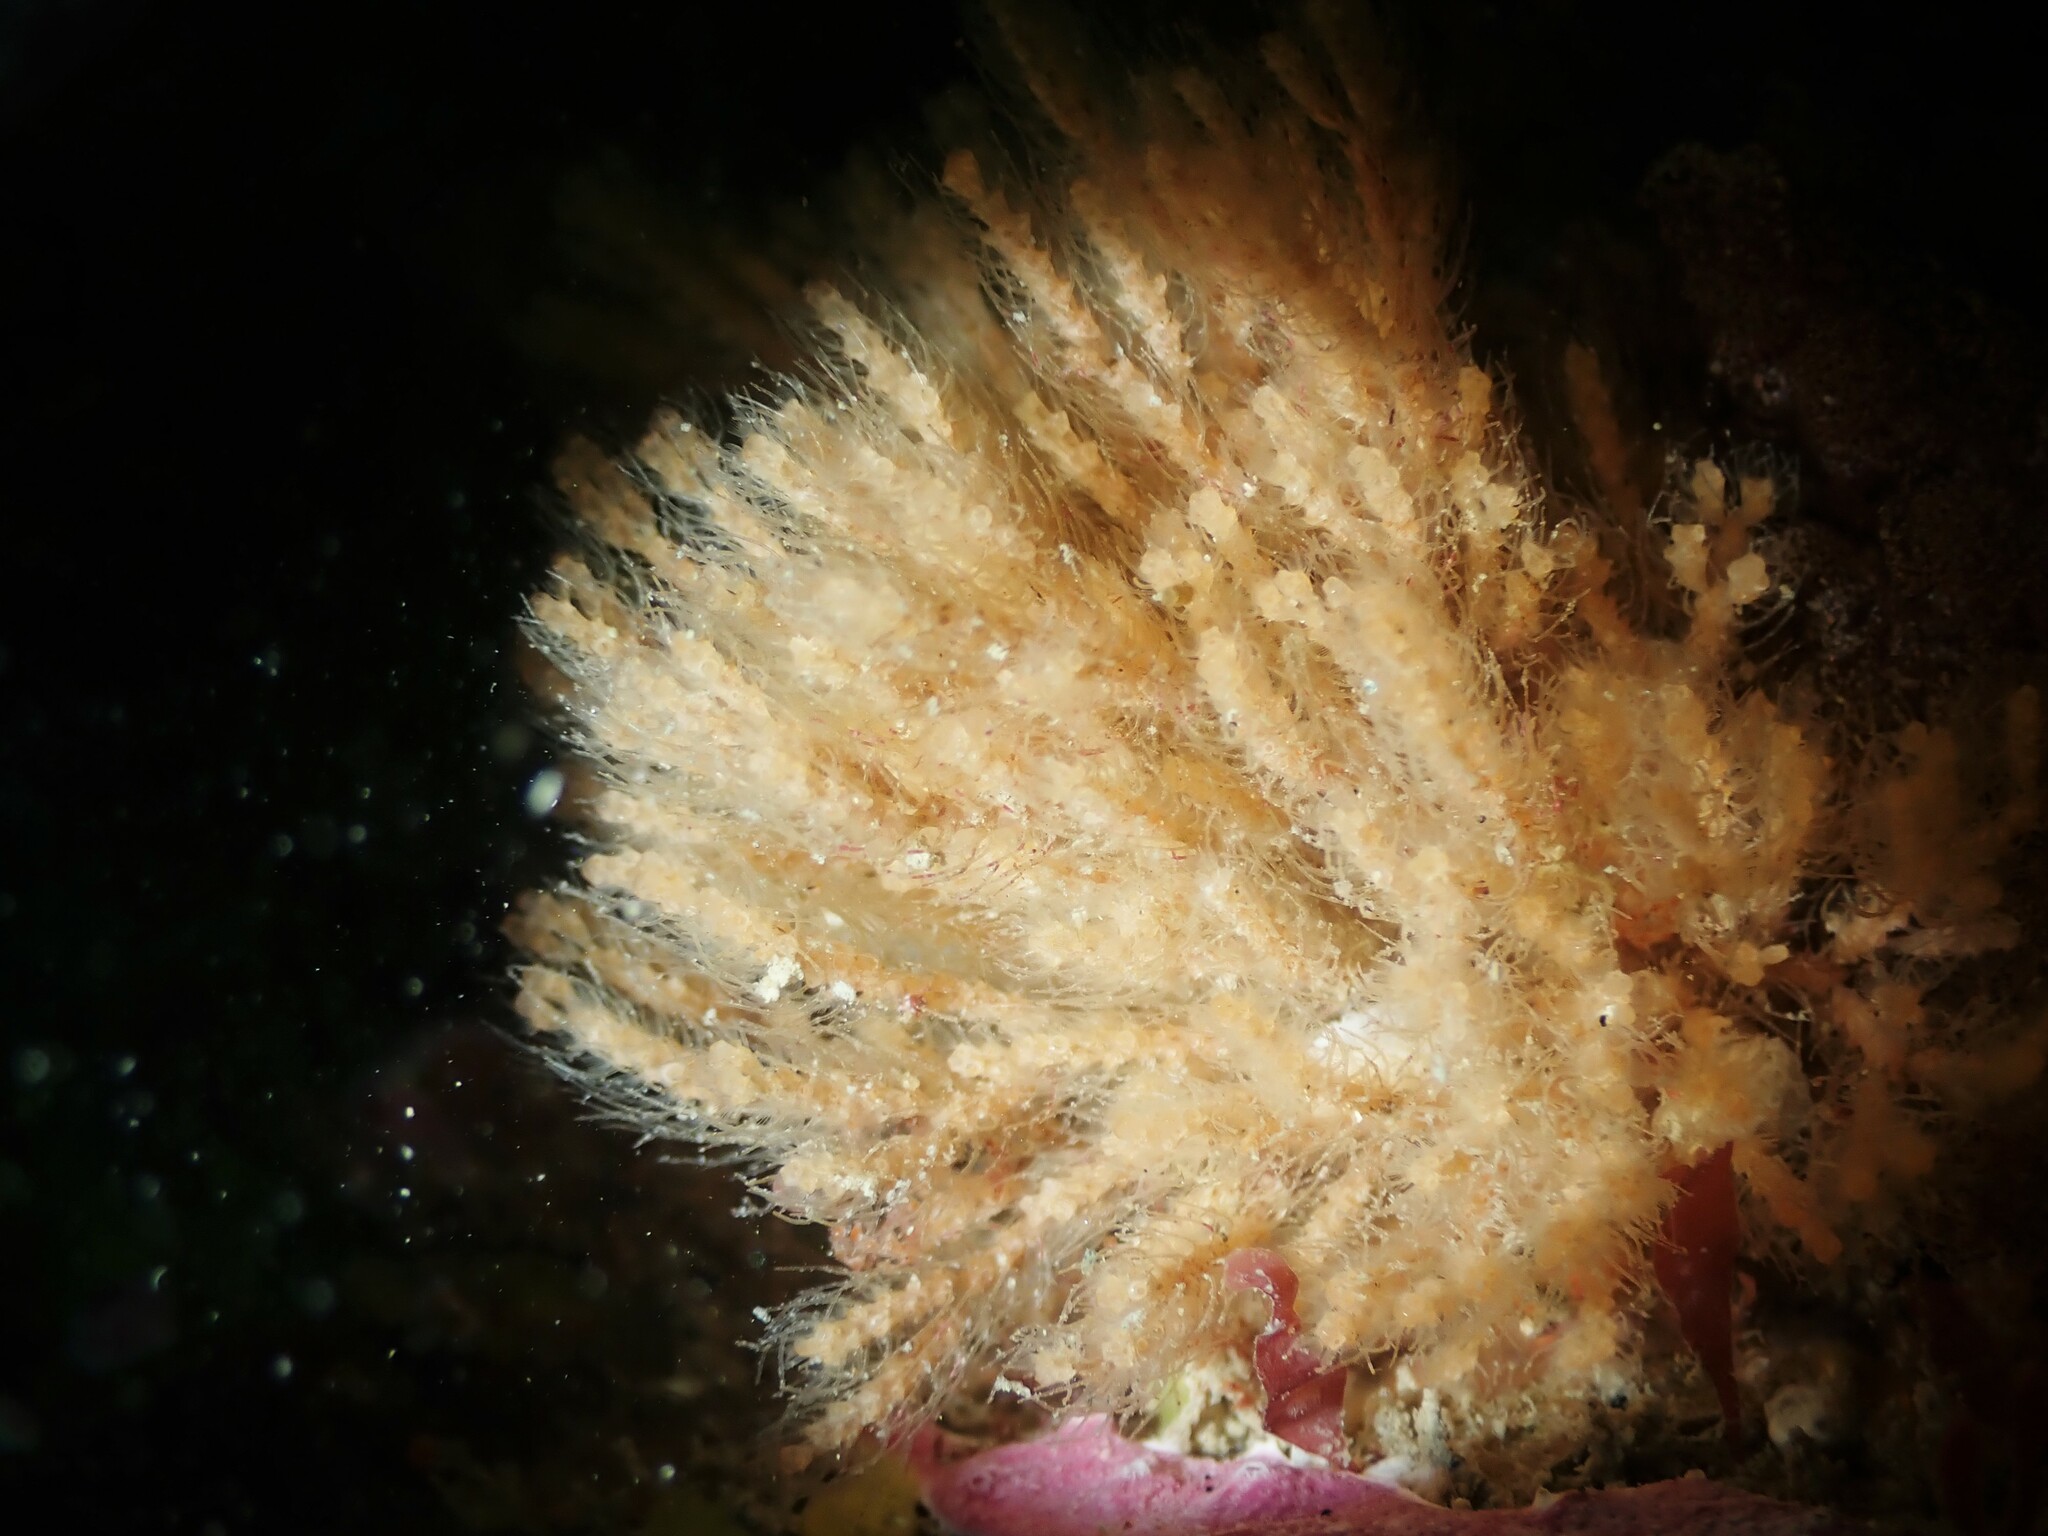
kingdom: Animalia
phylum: Bryozoa
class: Gymnolaemata
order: Cheilostomatida
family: Margarettidae
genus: Margaretta
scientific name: Margaretta barbata
